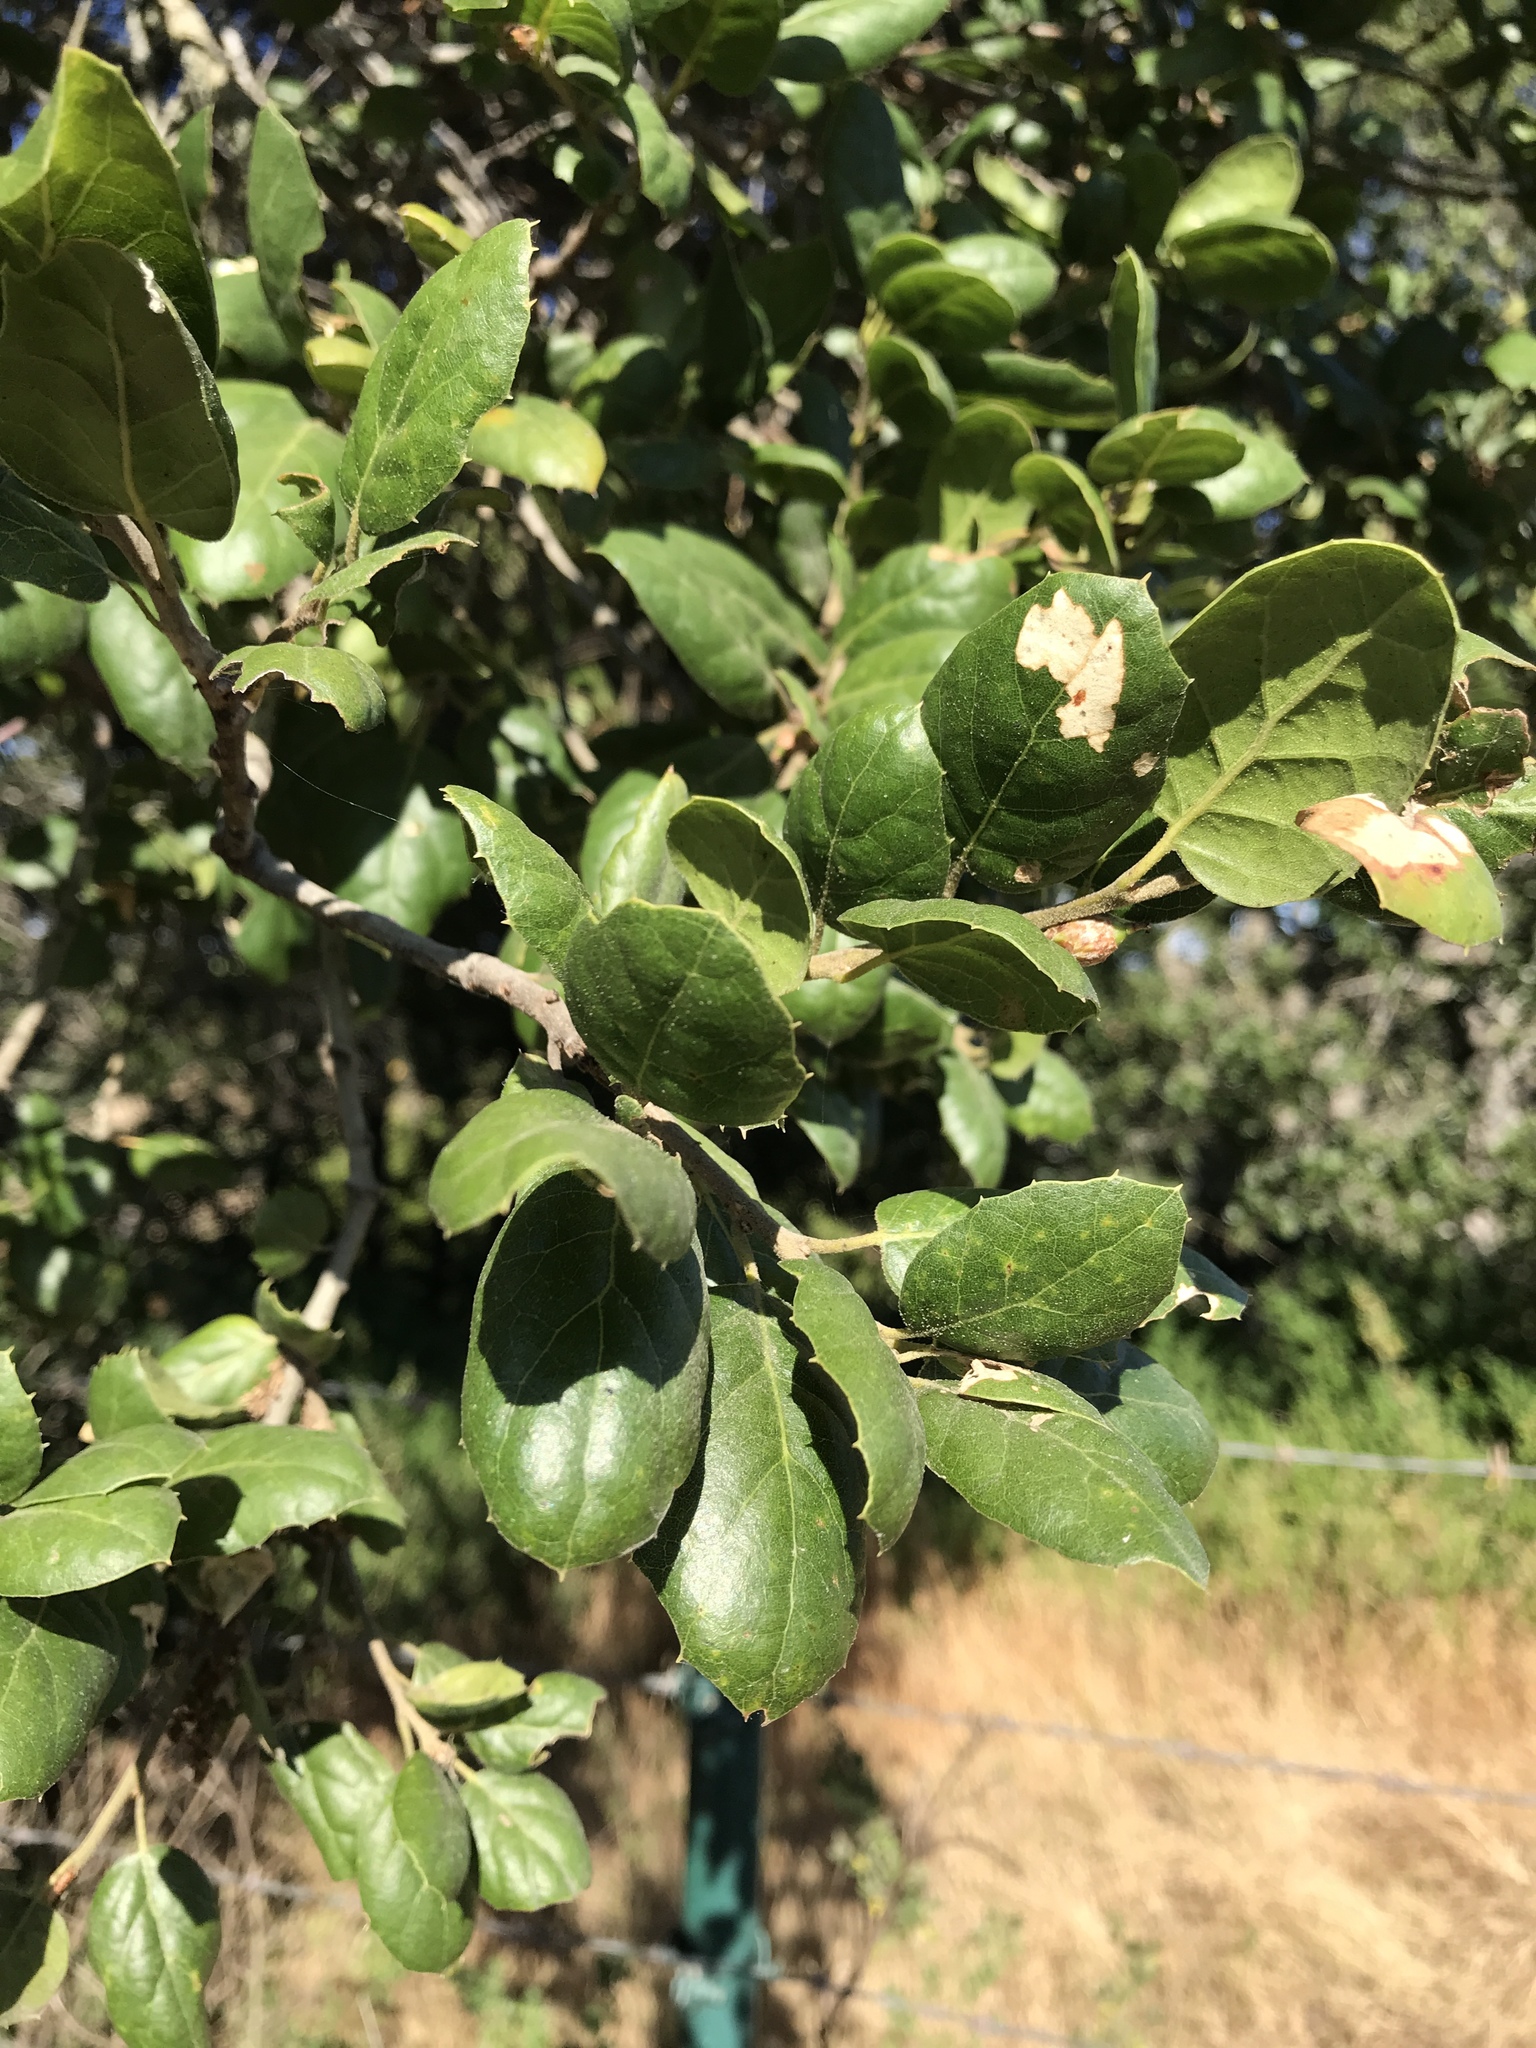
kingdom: Plantae
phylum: Tracheophyta
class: Magnoliopsida
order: Fagales
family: Fagaceae
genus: Quercus
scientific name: Quercus agrifolia
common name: California live oak
